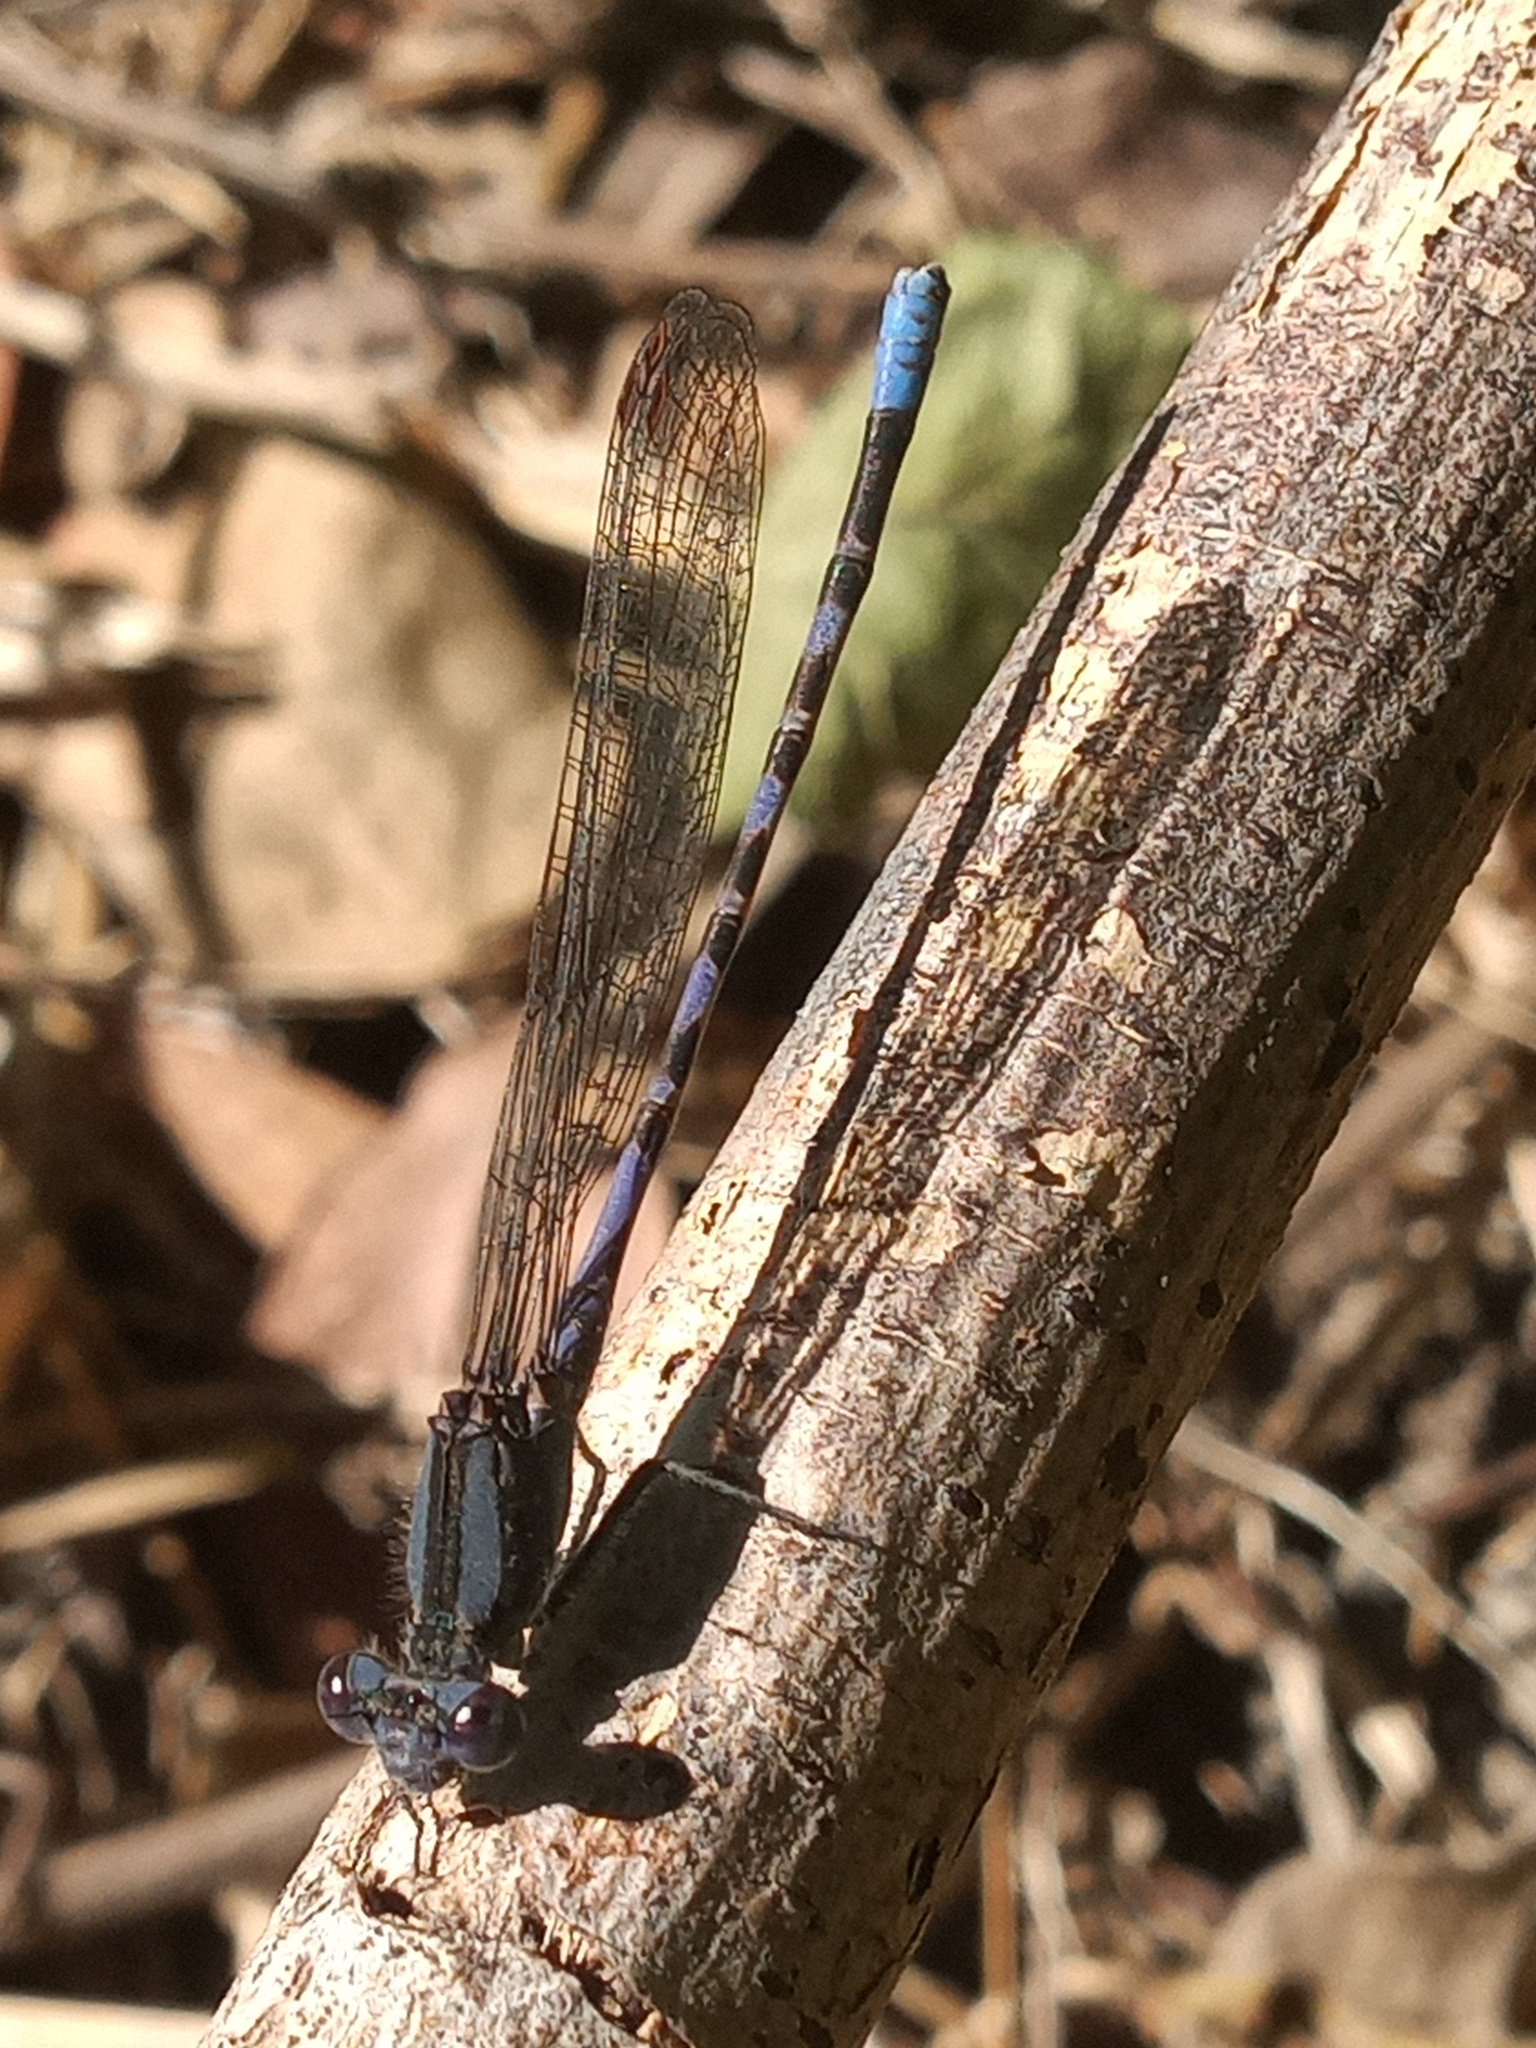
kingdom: Animalia
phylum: Arthropoda
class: Insecta
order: Odonata
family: Coenagrionidae
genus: Argia
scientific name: Argia immunda
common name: Kiowa dancer
